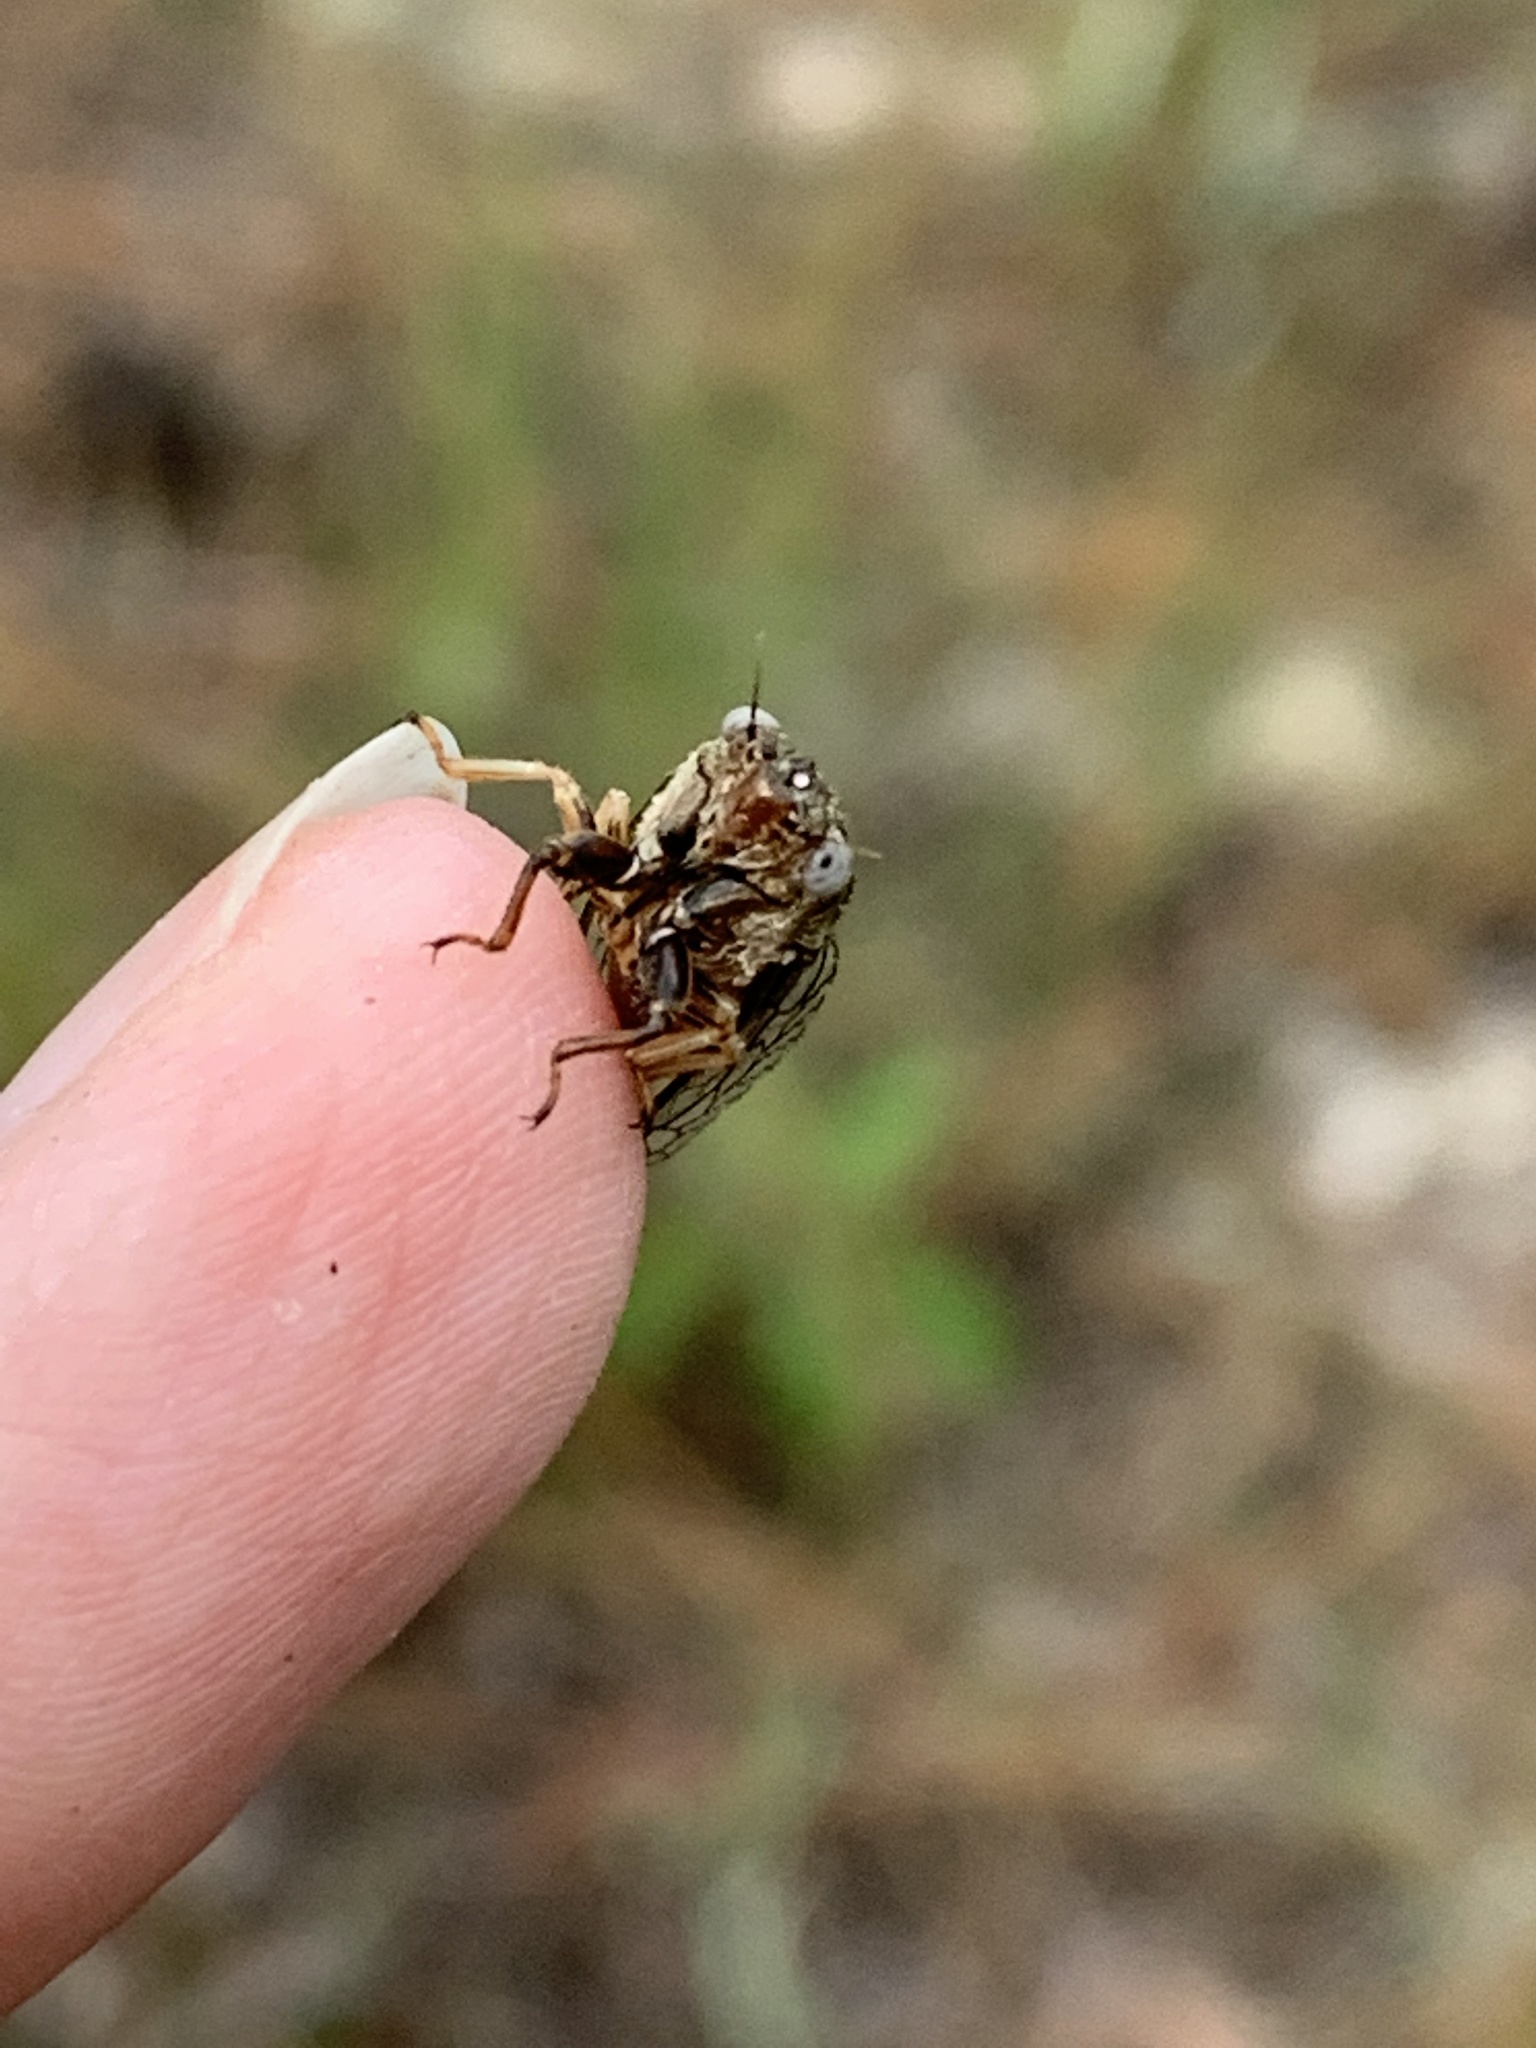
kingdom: Animalia
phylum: Arthropoda
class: Insecta
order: Hemiptera
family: Cicadidae
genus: Cicadettana
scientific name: Cicadettana calliope
